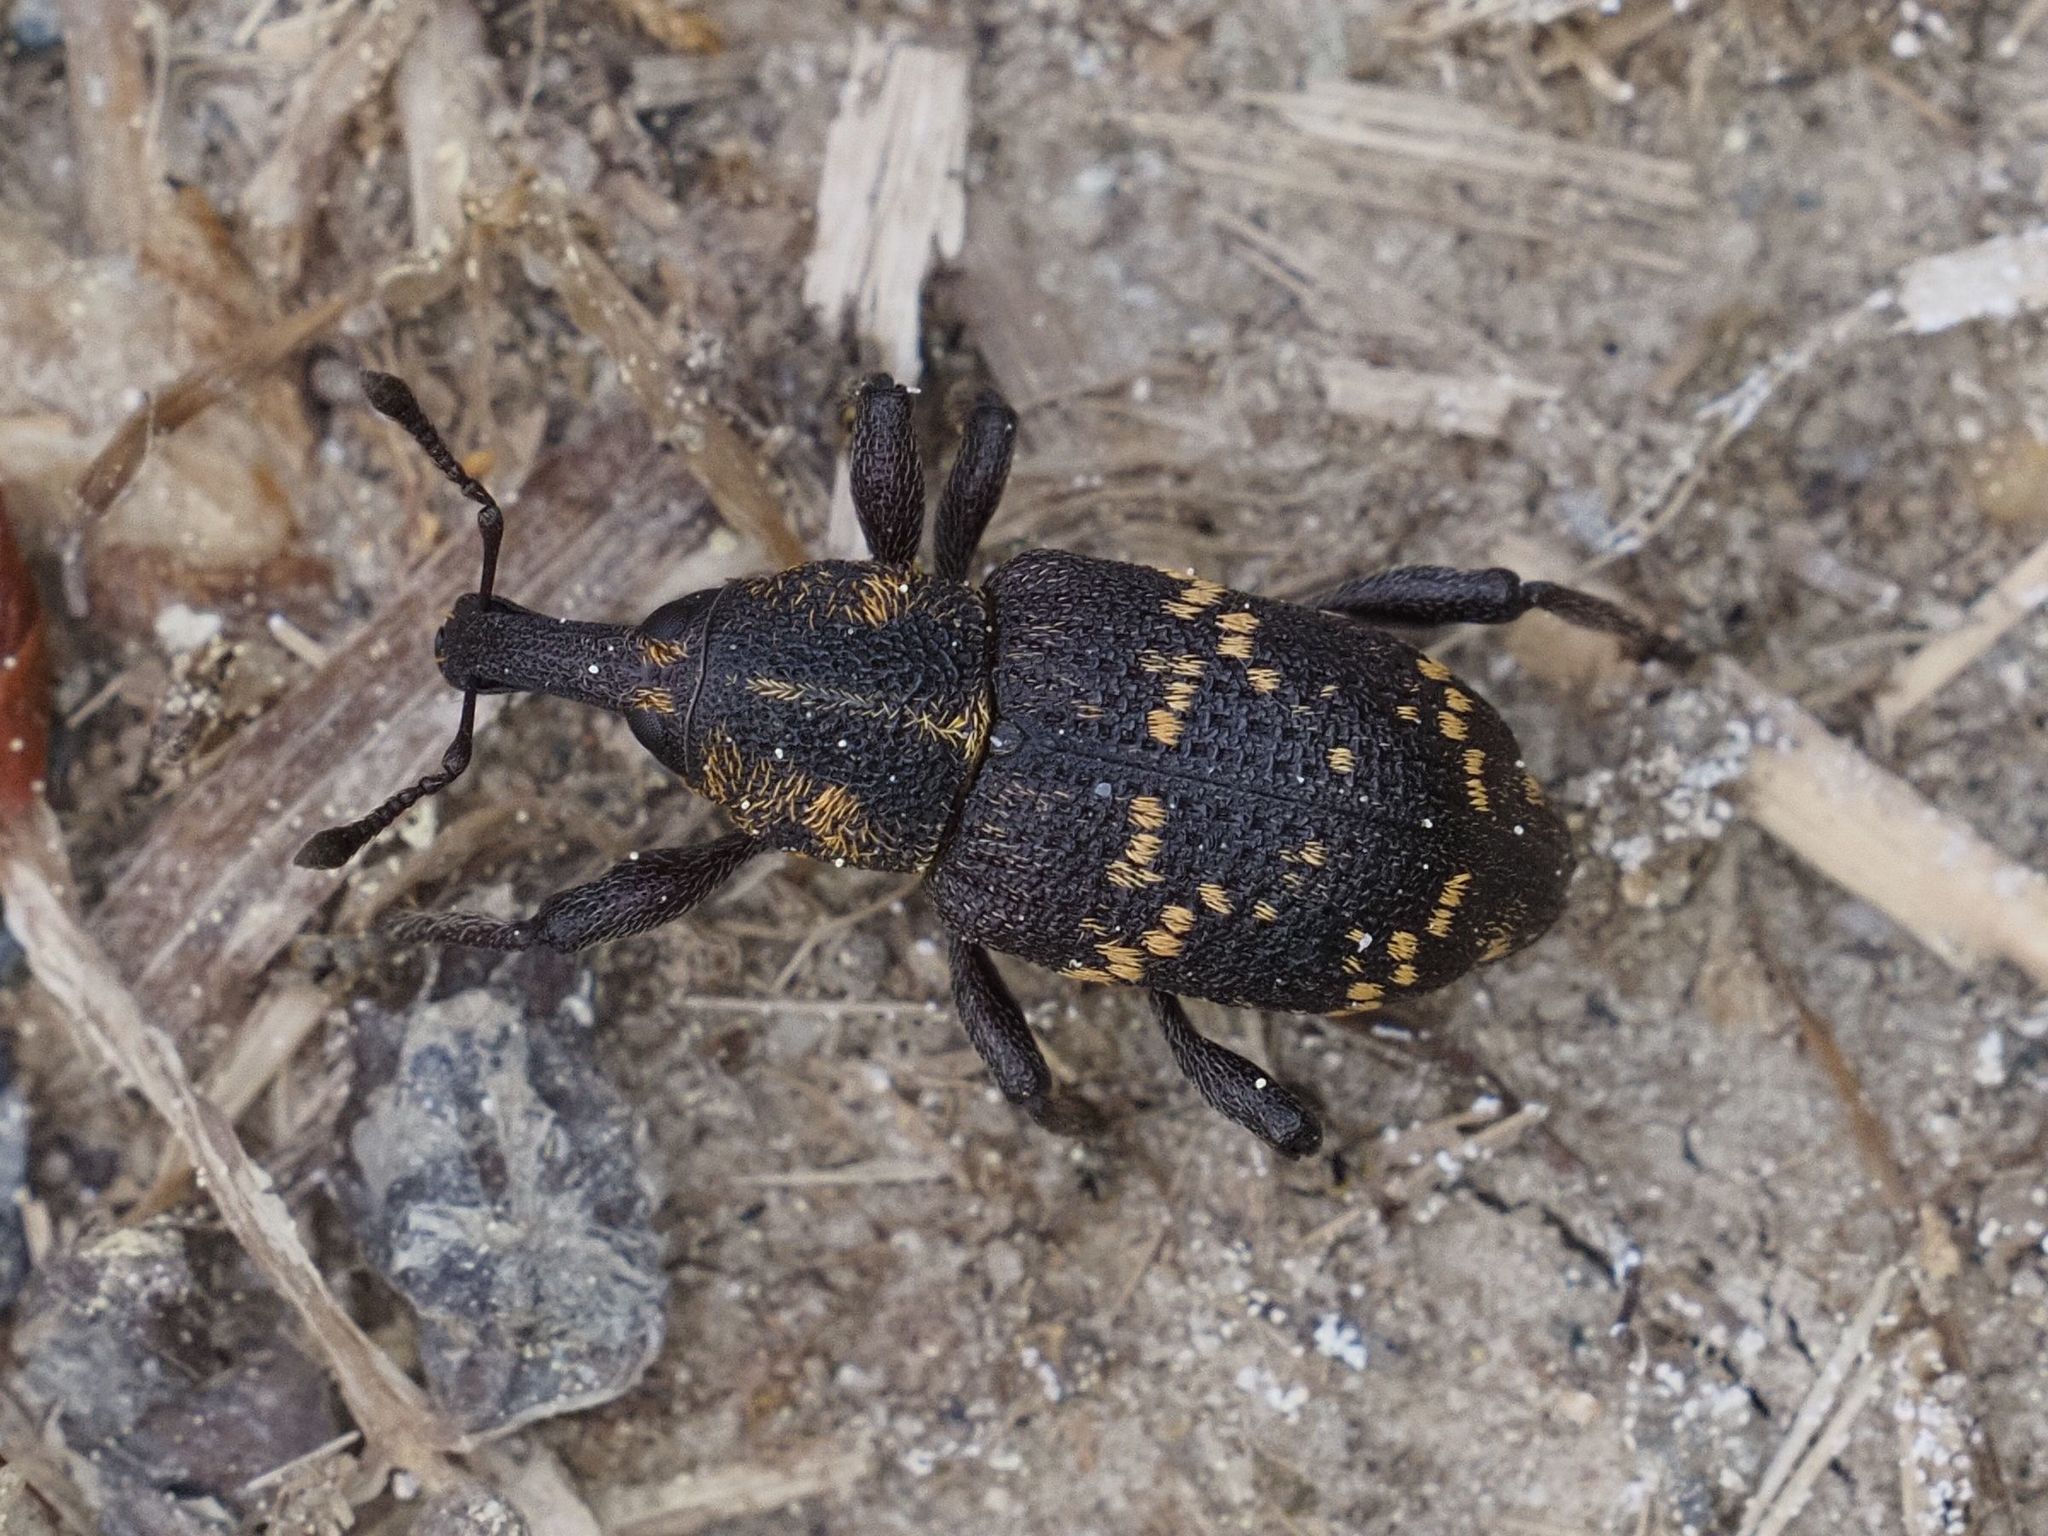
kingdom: Animalia
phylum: Arthropoda
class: Insecta
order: Coleoptera
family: Curculionidae
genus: Hylobius
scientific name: Hylobius abietis
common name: Large pine weevil
